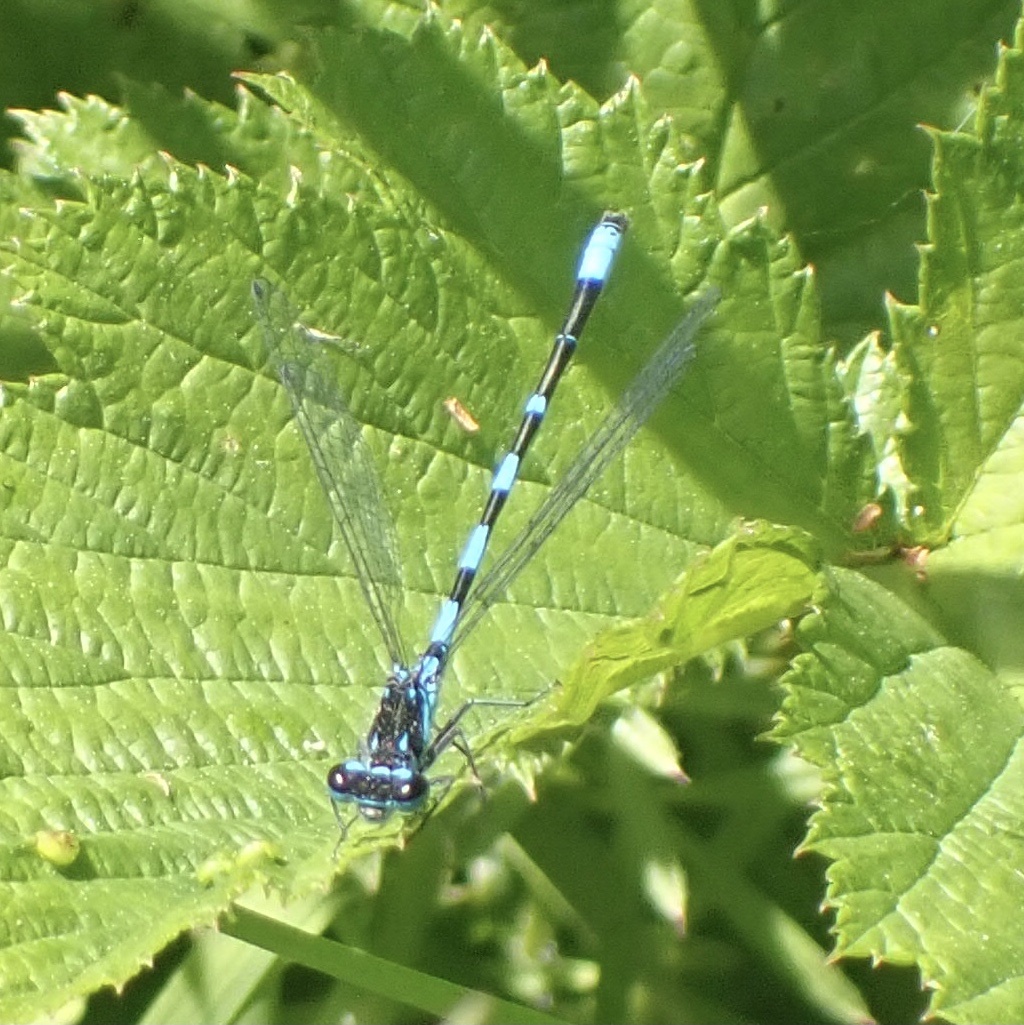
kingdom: Animalia
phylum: Arthropoda
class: Insecta
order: Odonata
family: Coenagrionidae
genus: Coenagrion
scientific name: Coenagrion pulchellum
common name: Variable bluet
